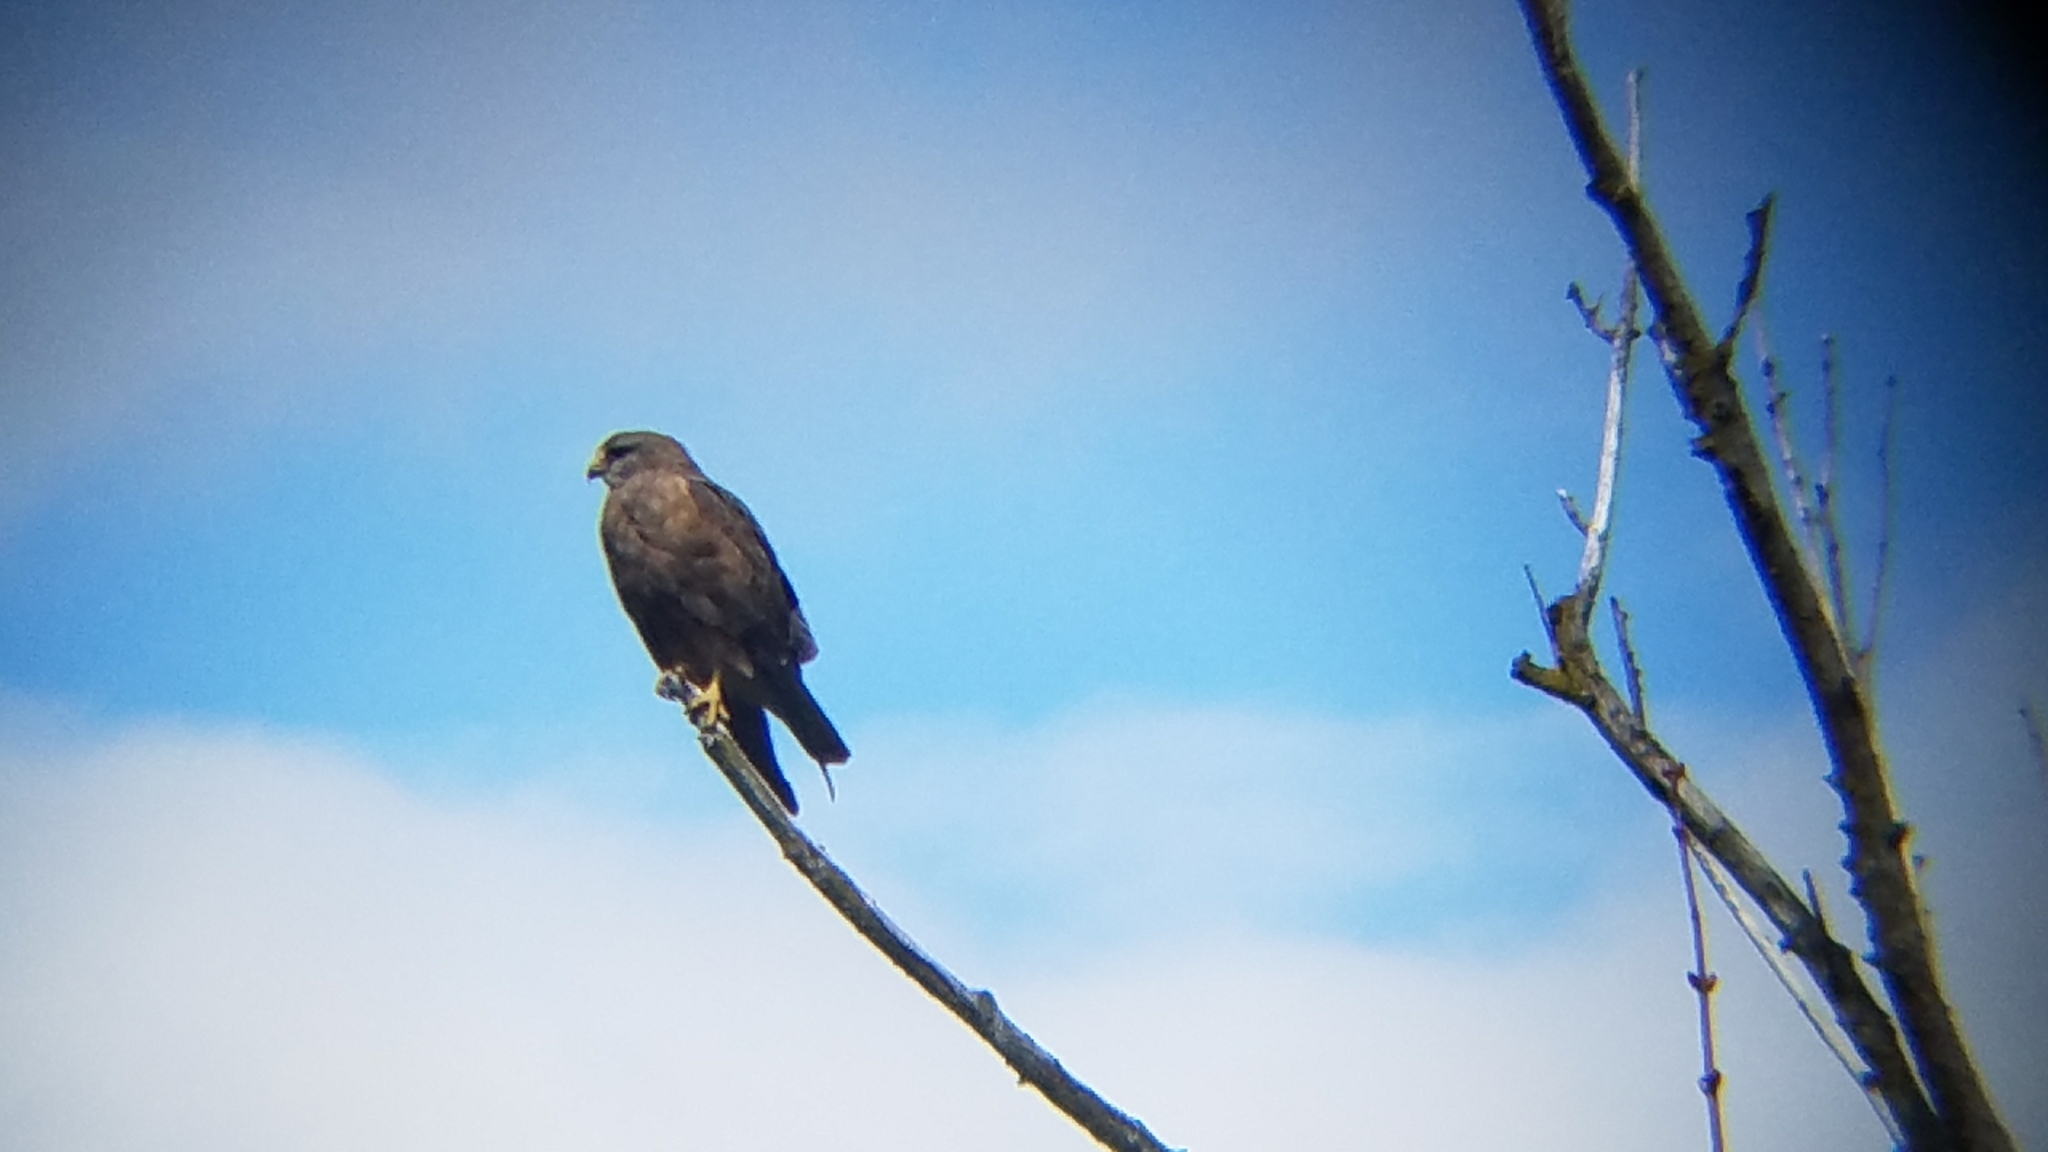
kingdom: Animalia
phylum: Chordata
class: Aves
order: Accipitriformes
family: Accipitridae
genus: Buteo
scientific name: Buteo swainsoni
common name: Swainson's hawk
